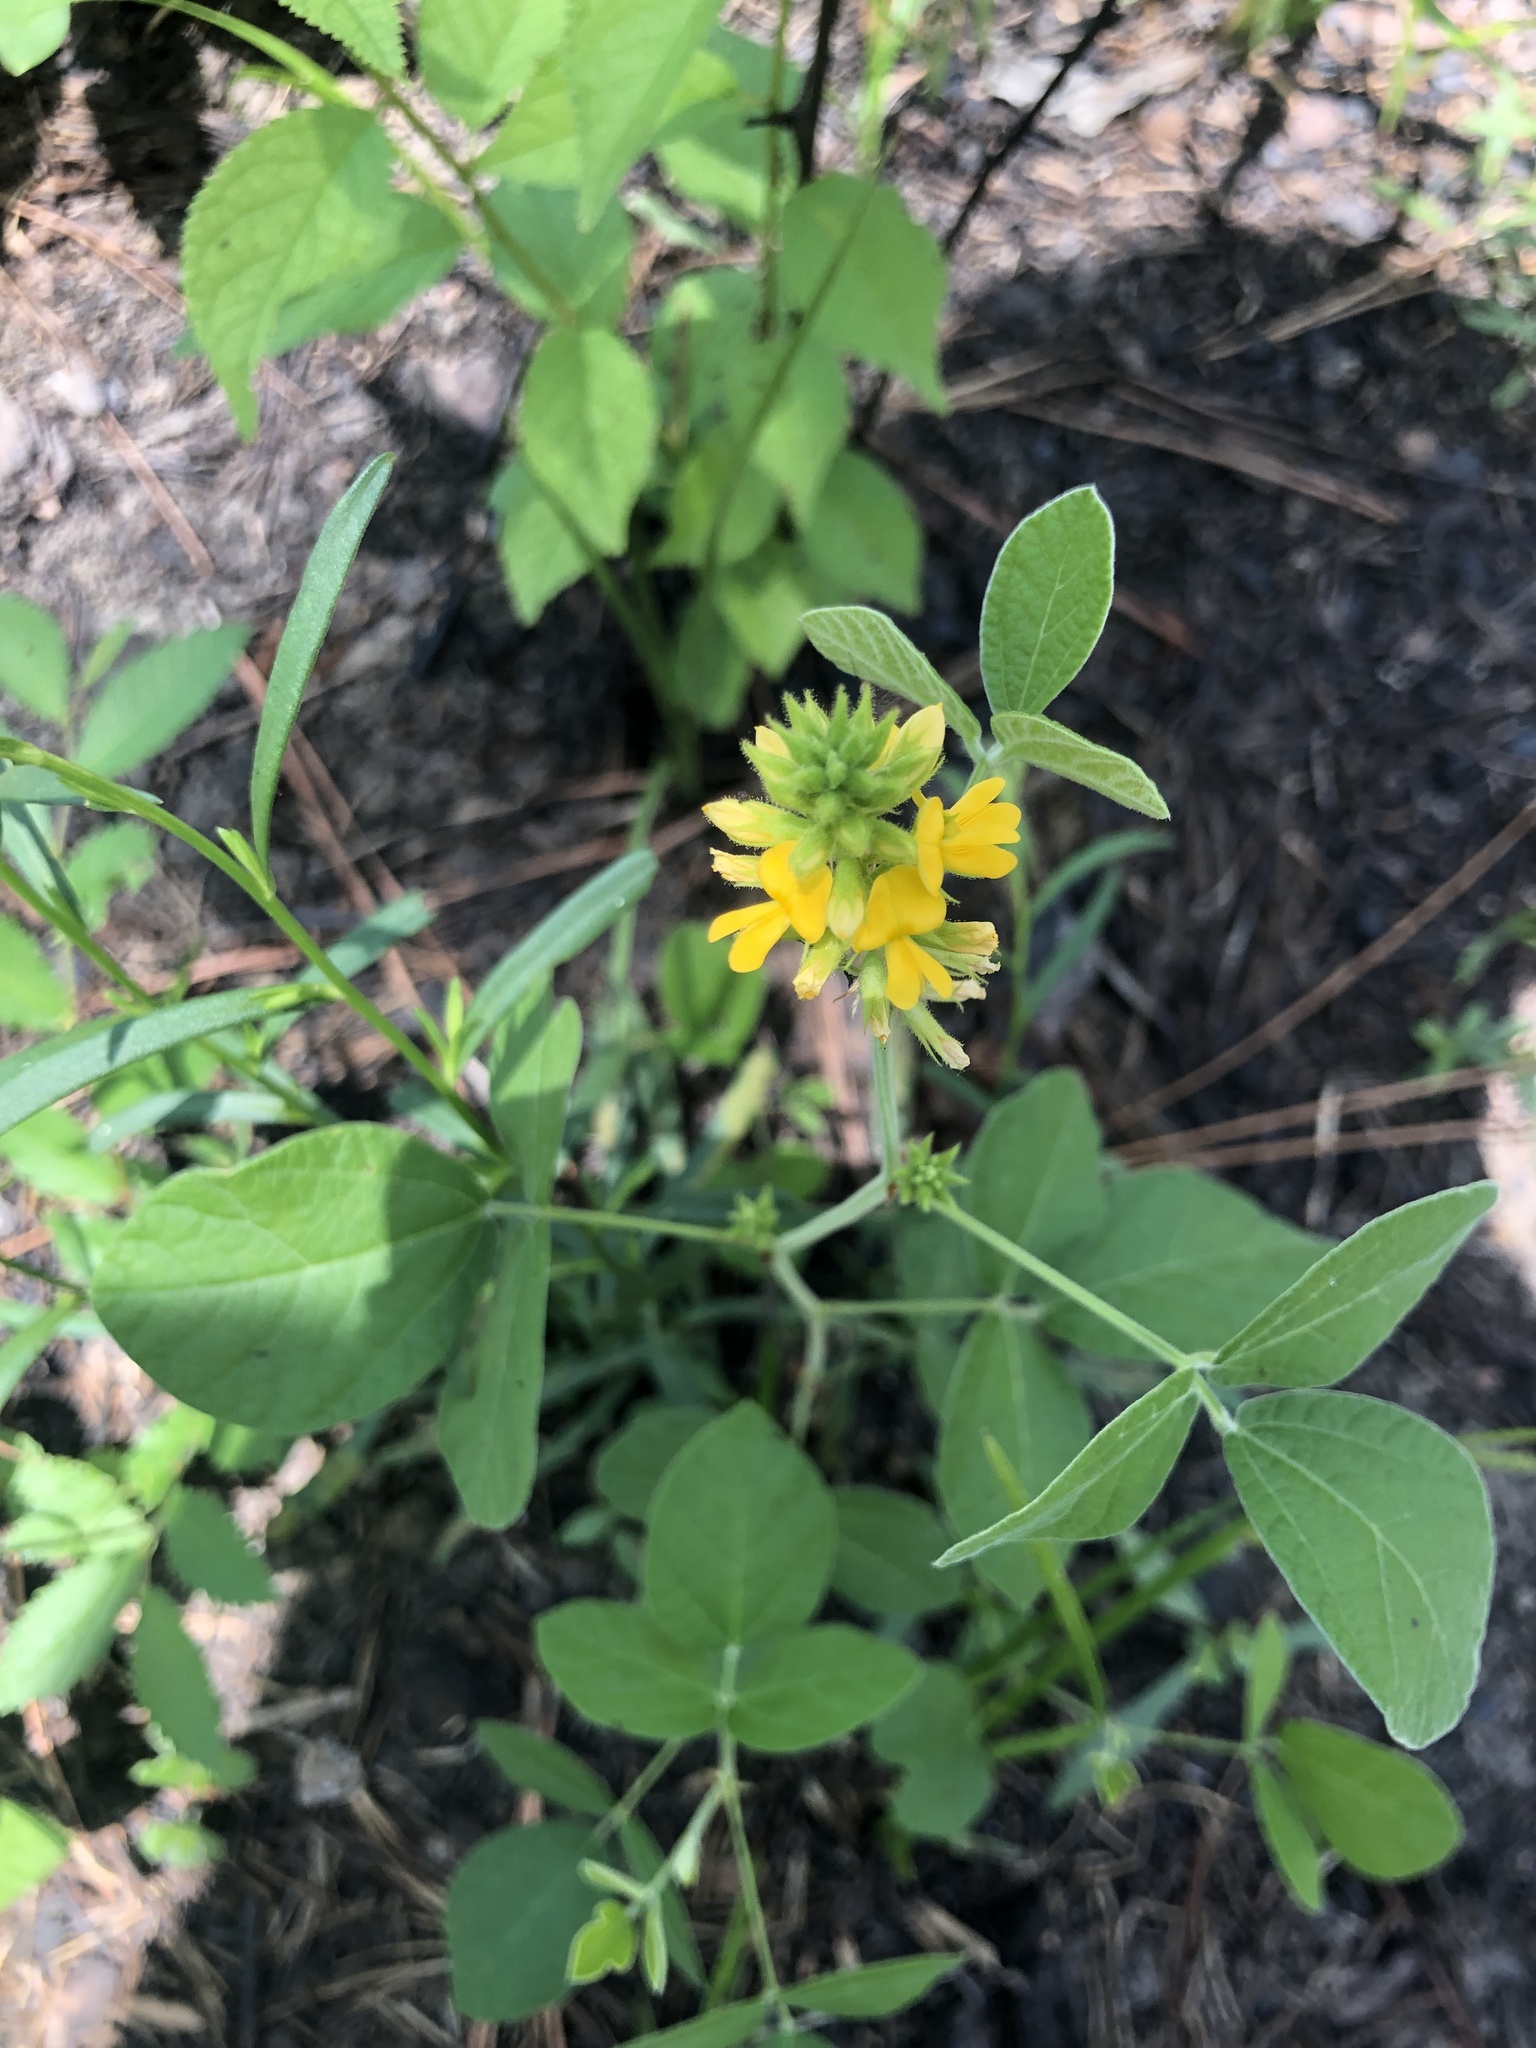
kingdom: Plantae
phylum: Tracheophyta
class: Magnoliopsida
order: Fabales
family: Fabaceae
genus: Rhynchosia
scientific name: Rhynchosia tomentosa
